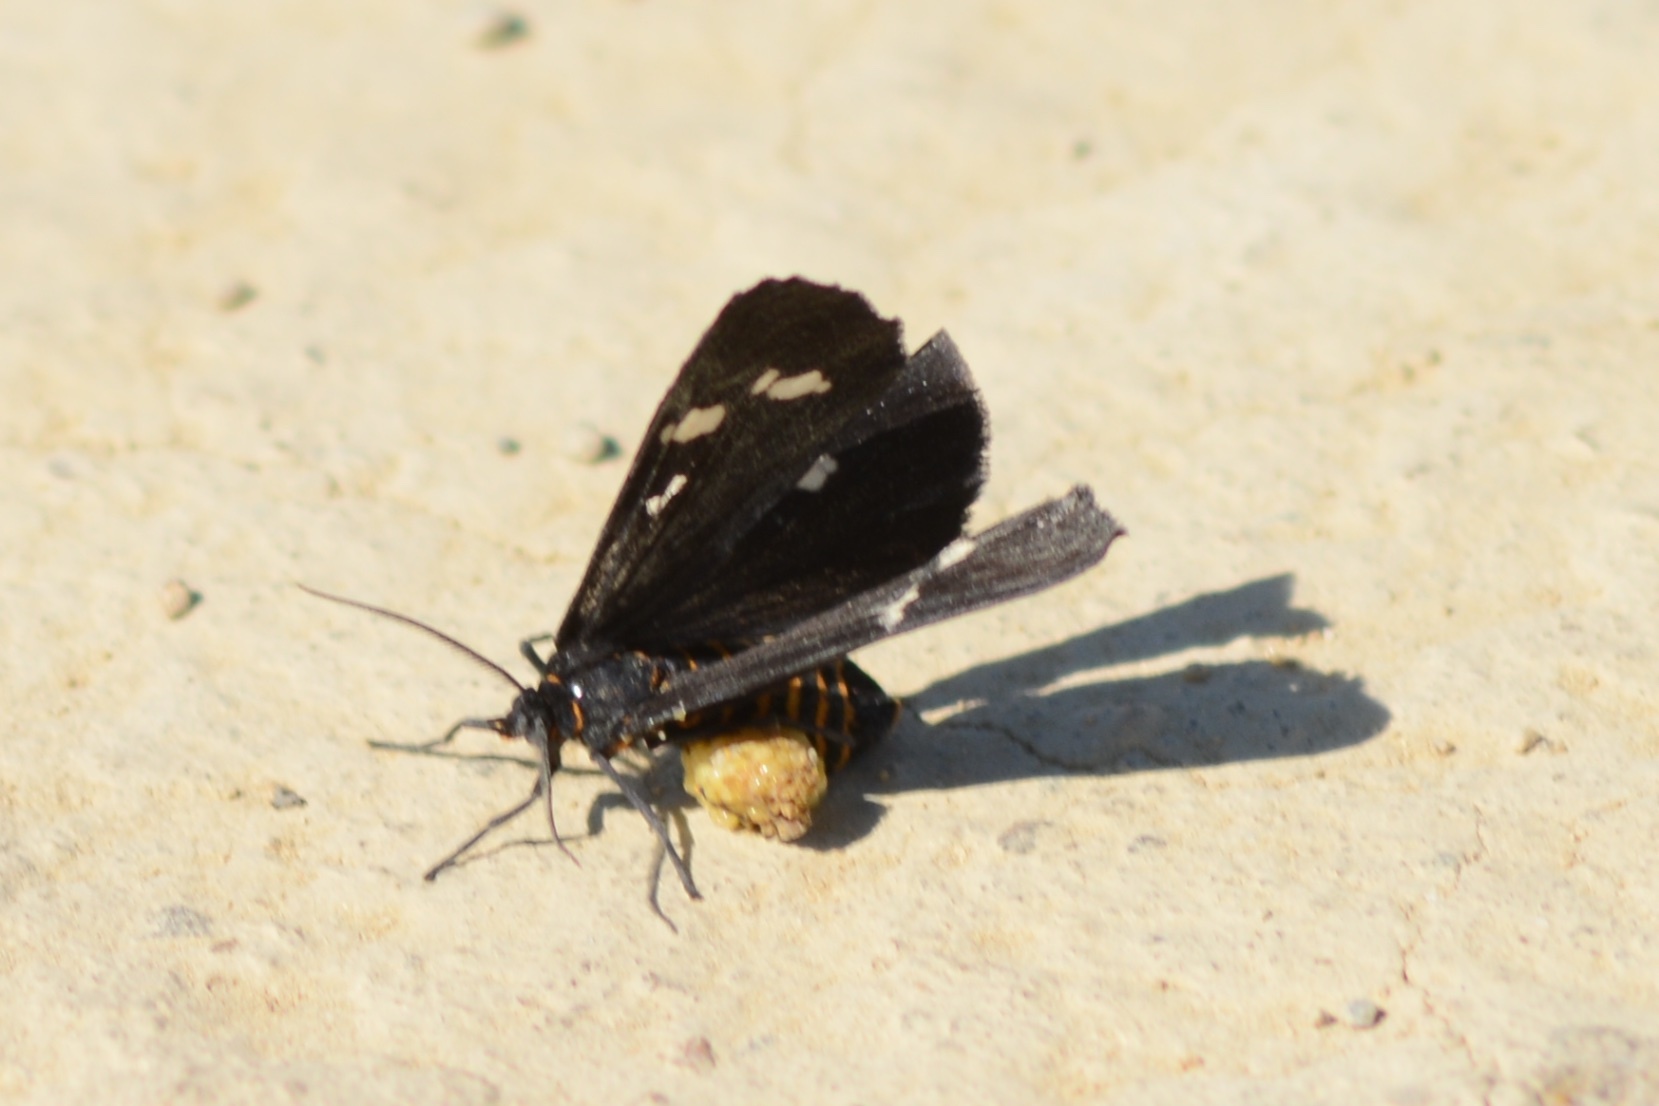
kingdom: Animalia
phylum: Arthropoda
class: Insecta
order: Lepidoptera
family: Erebidae
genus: Nyctemera
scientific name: Nyctemera annulatum
